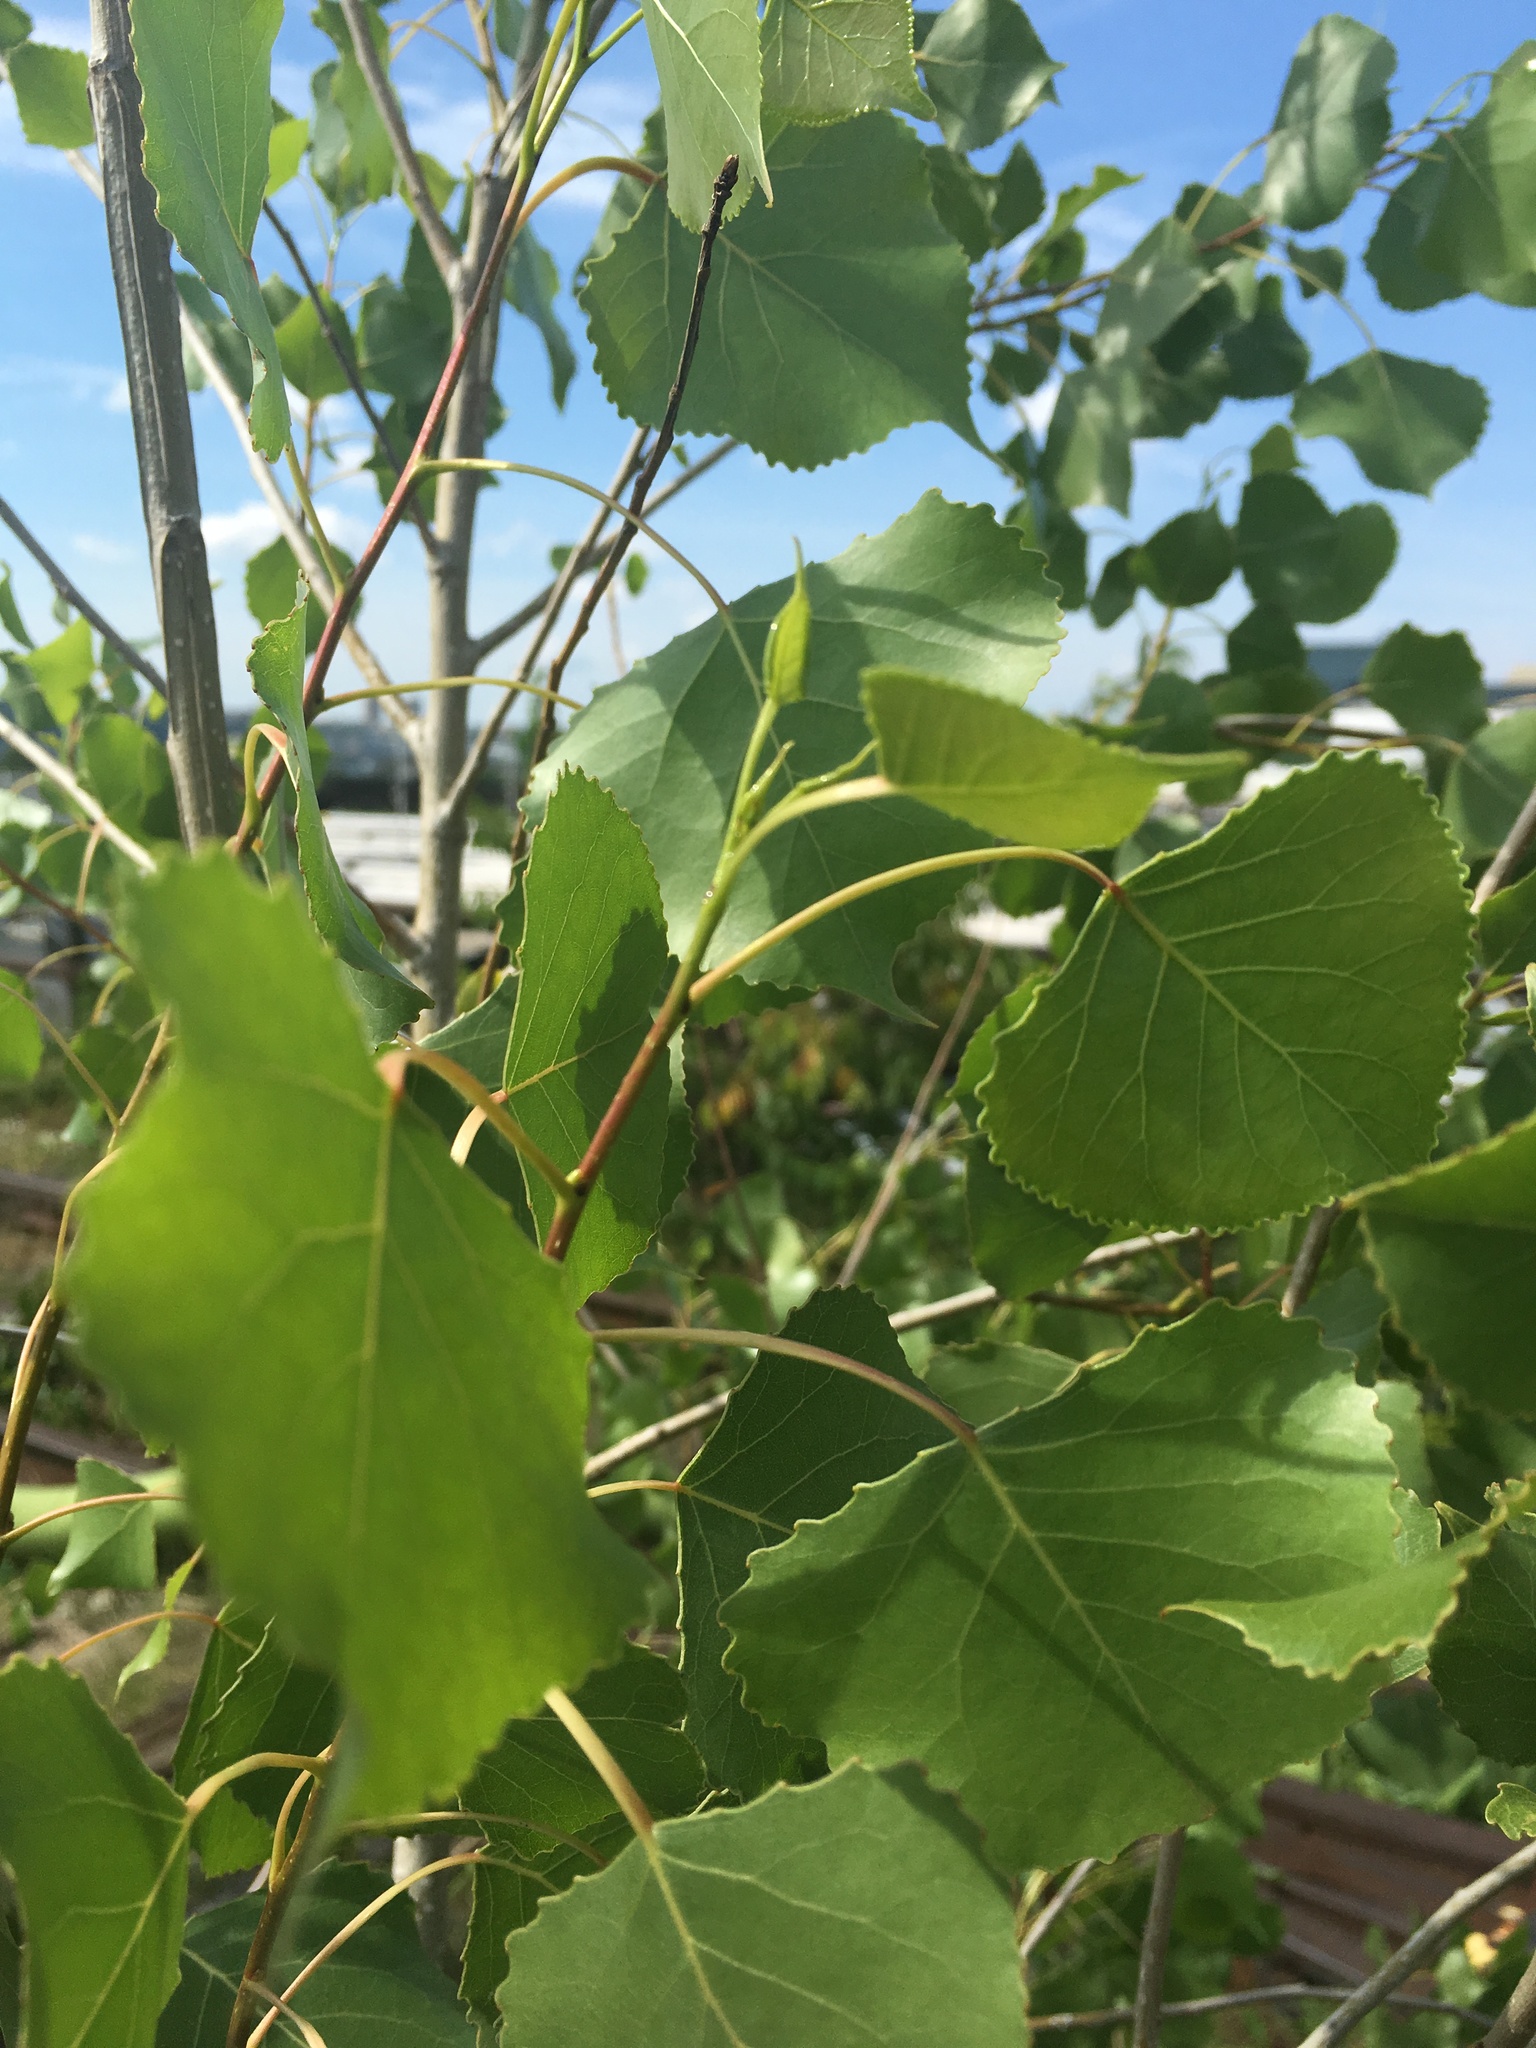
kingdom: Plantae
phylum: Tracheophyta
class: Magnoliopsida
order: Malpighiales
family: Salicaceae
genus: Populus
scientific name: Populus deltoides
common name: Eastern cottonwood
